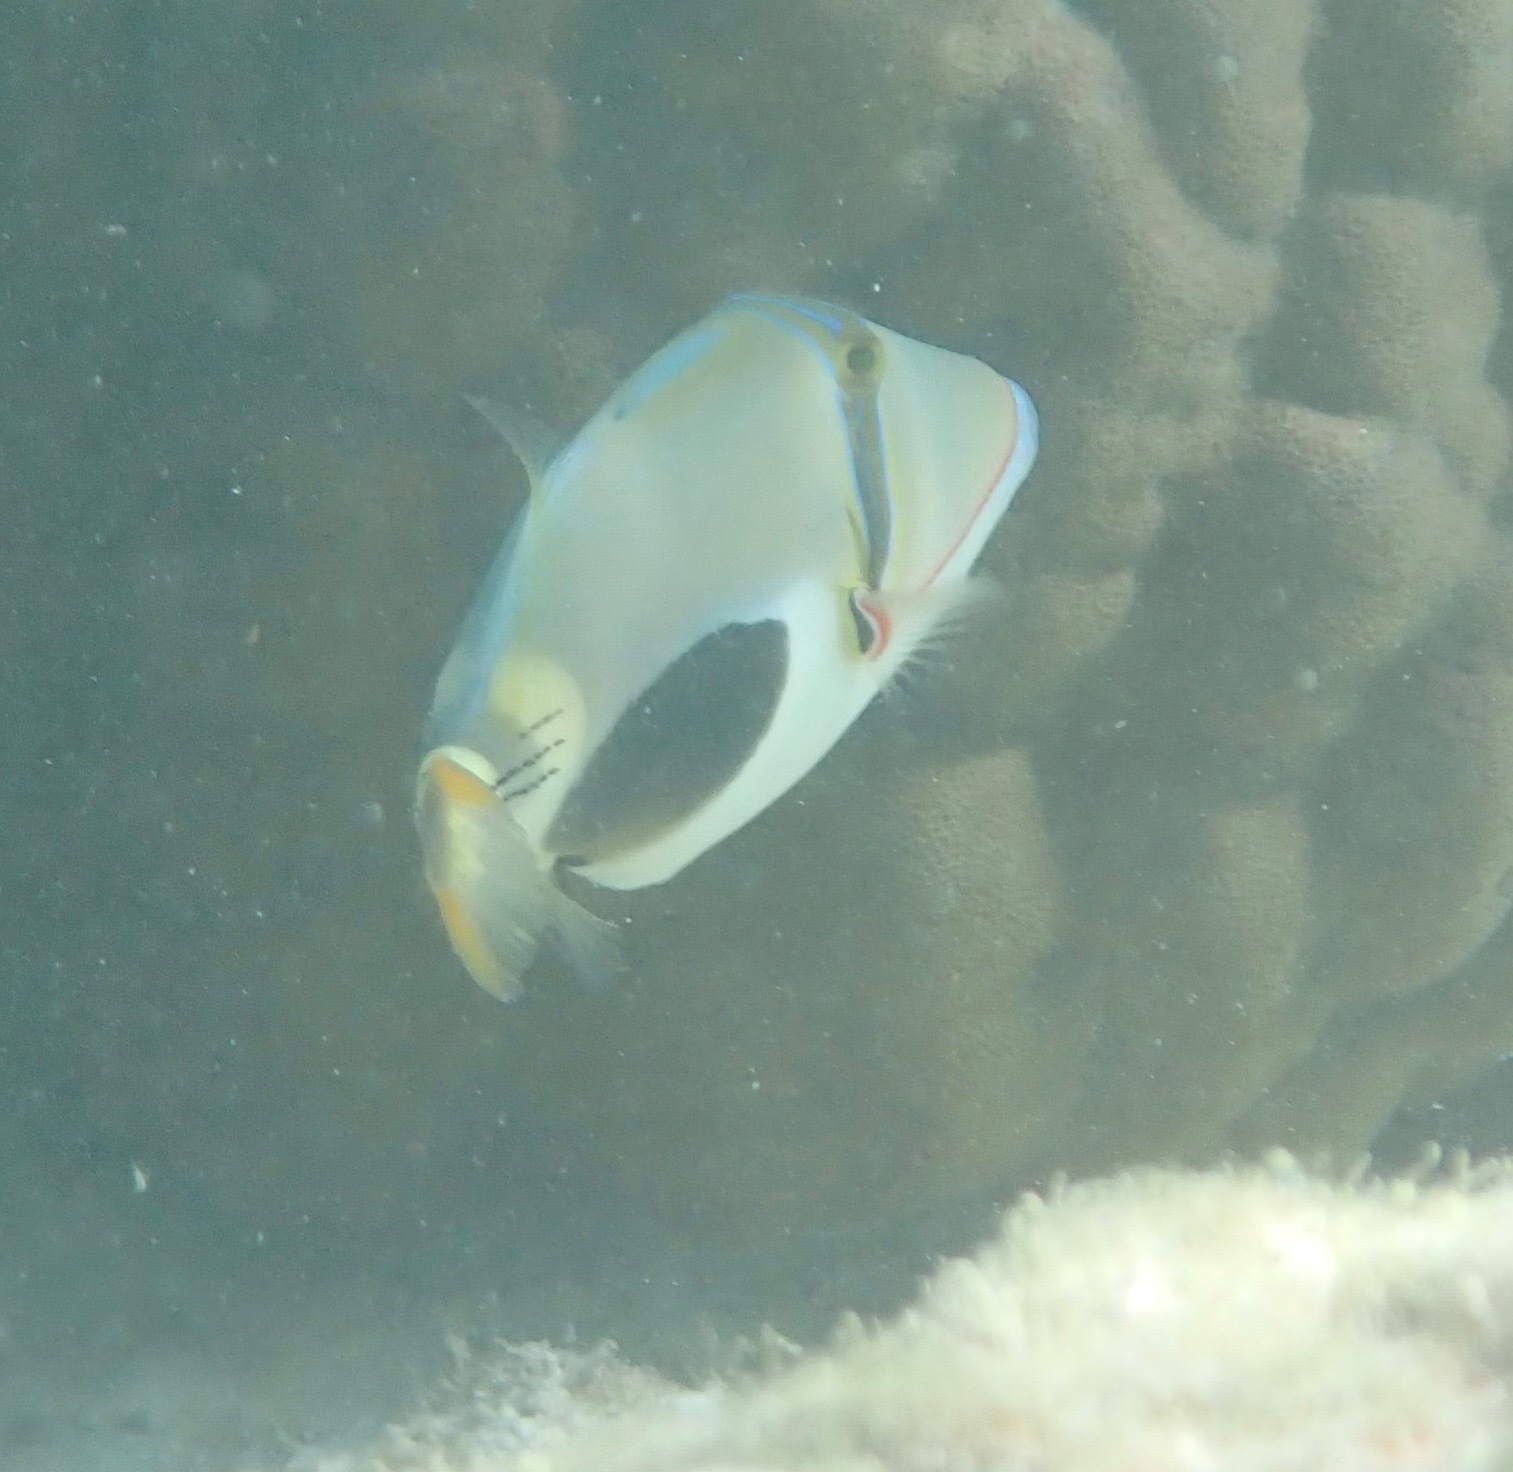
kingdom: Animalia
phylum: Chordata
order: Tetraodontiformes
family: Balistidae
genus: Rhinecanthus
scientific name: Rhinecanthus verrucosus
